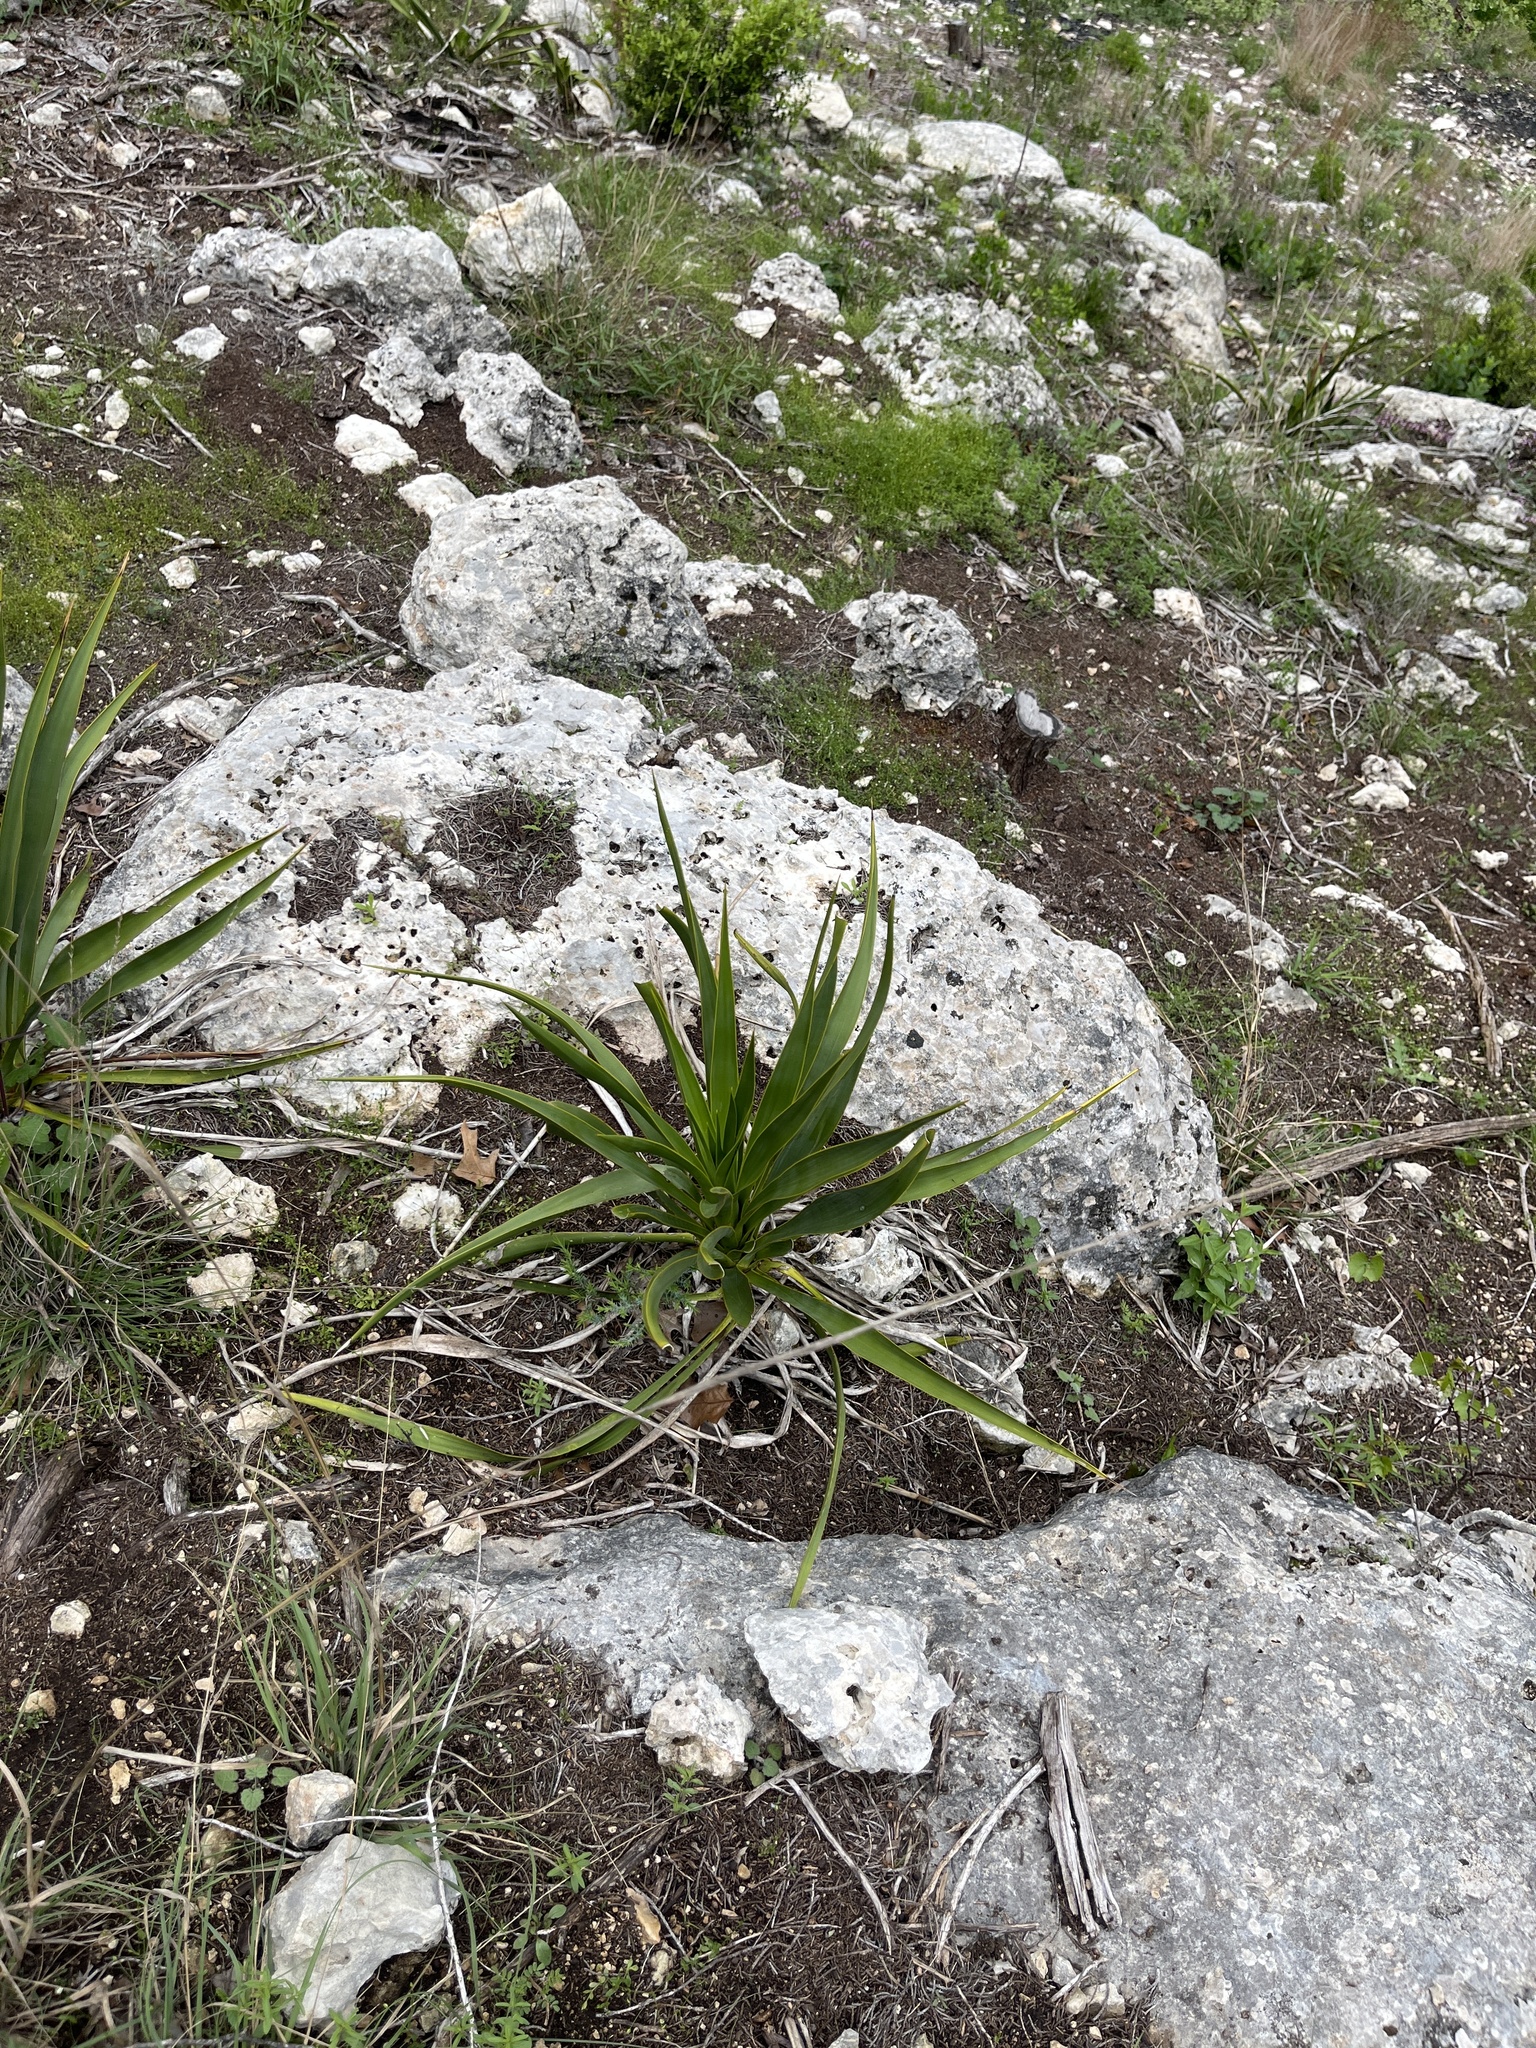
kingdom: Plantae
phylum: Tracheophyta
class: Liliopsida
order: Asparagales
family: Asparagaceae
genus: Yucca
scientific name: Yucca rupicola
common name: Twisted-leaf spanish-dagger
